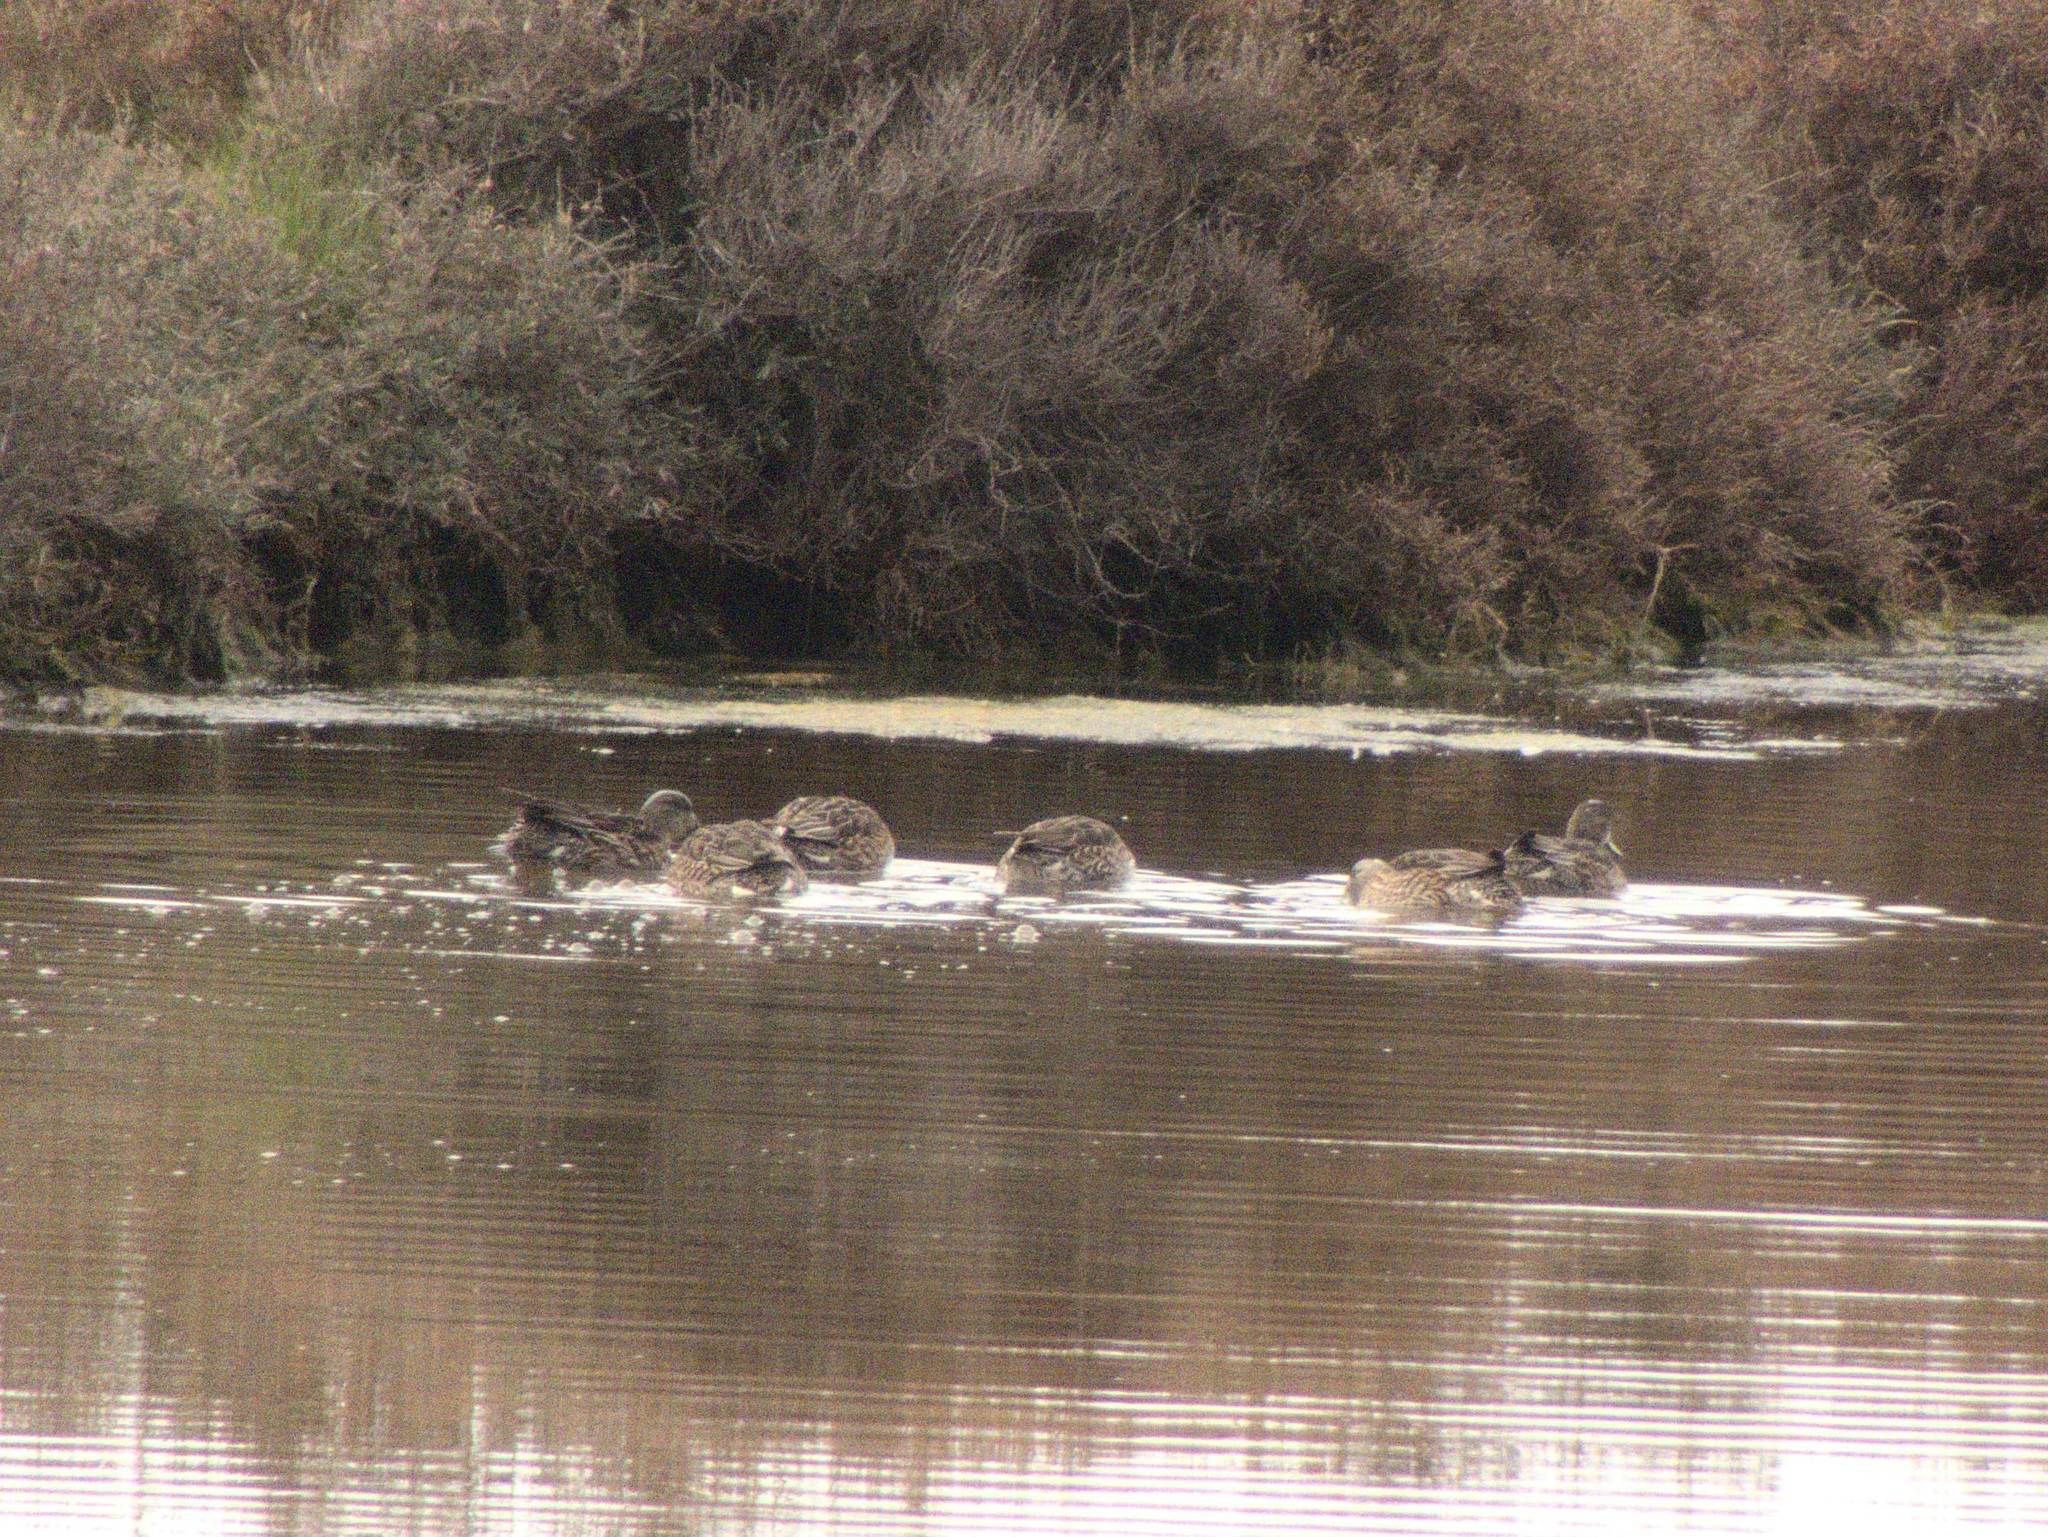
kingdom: Animalia
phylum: Chordata
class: Aves
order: Anseriformes
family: Anatidae
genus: Anas
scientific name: Anas crecca
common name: Eurasian teal
